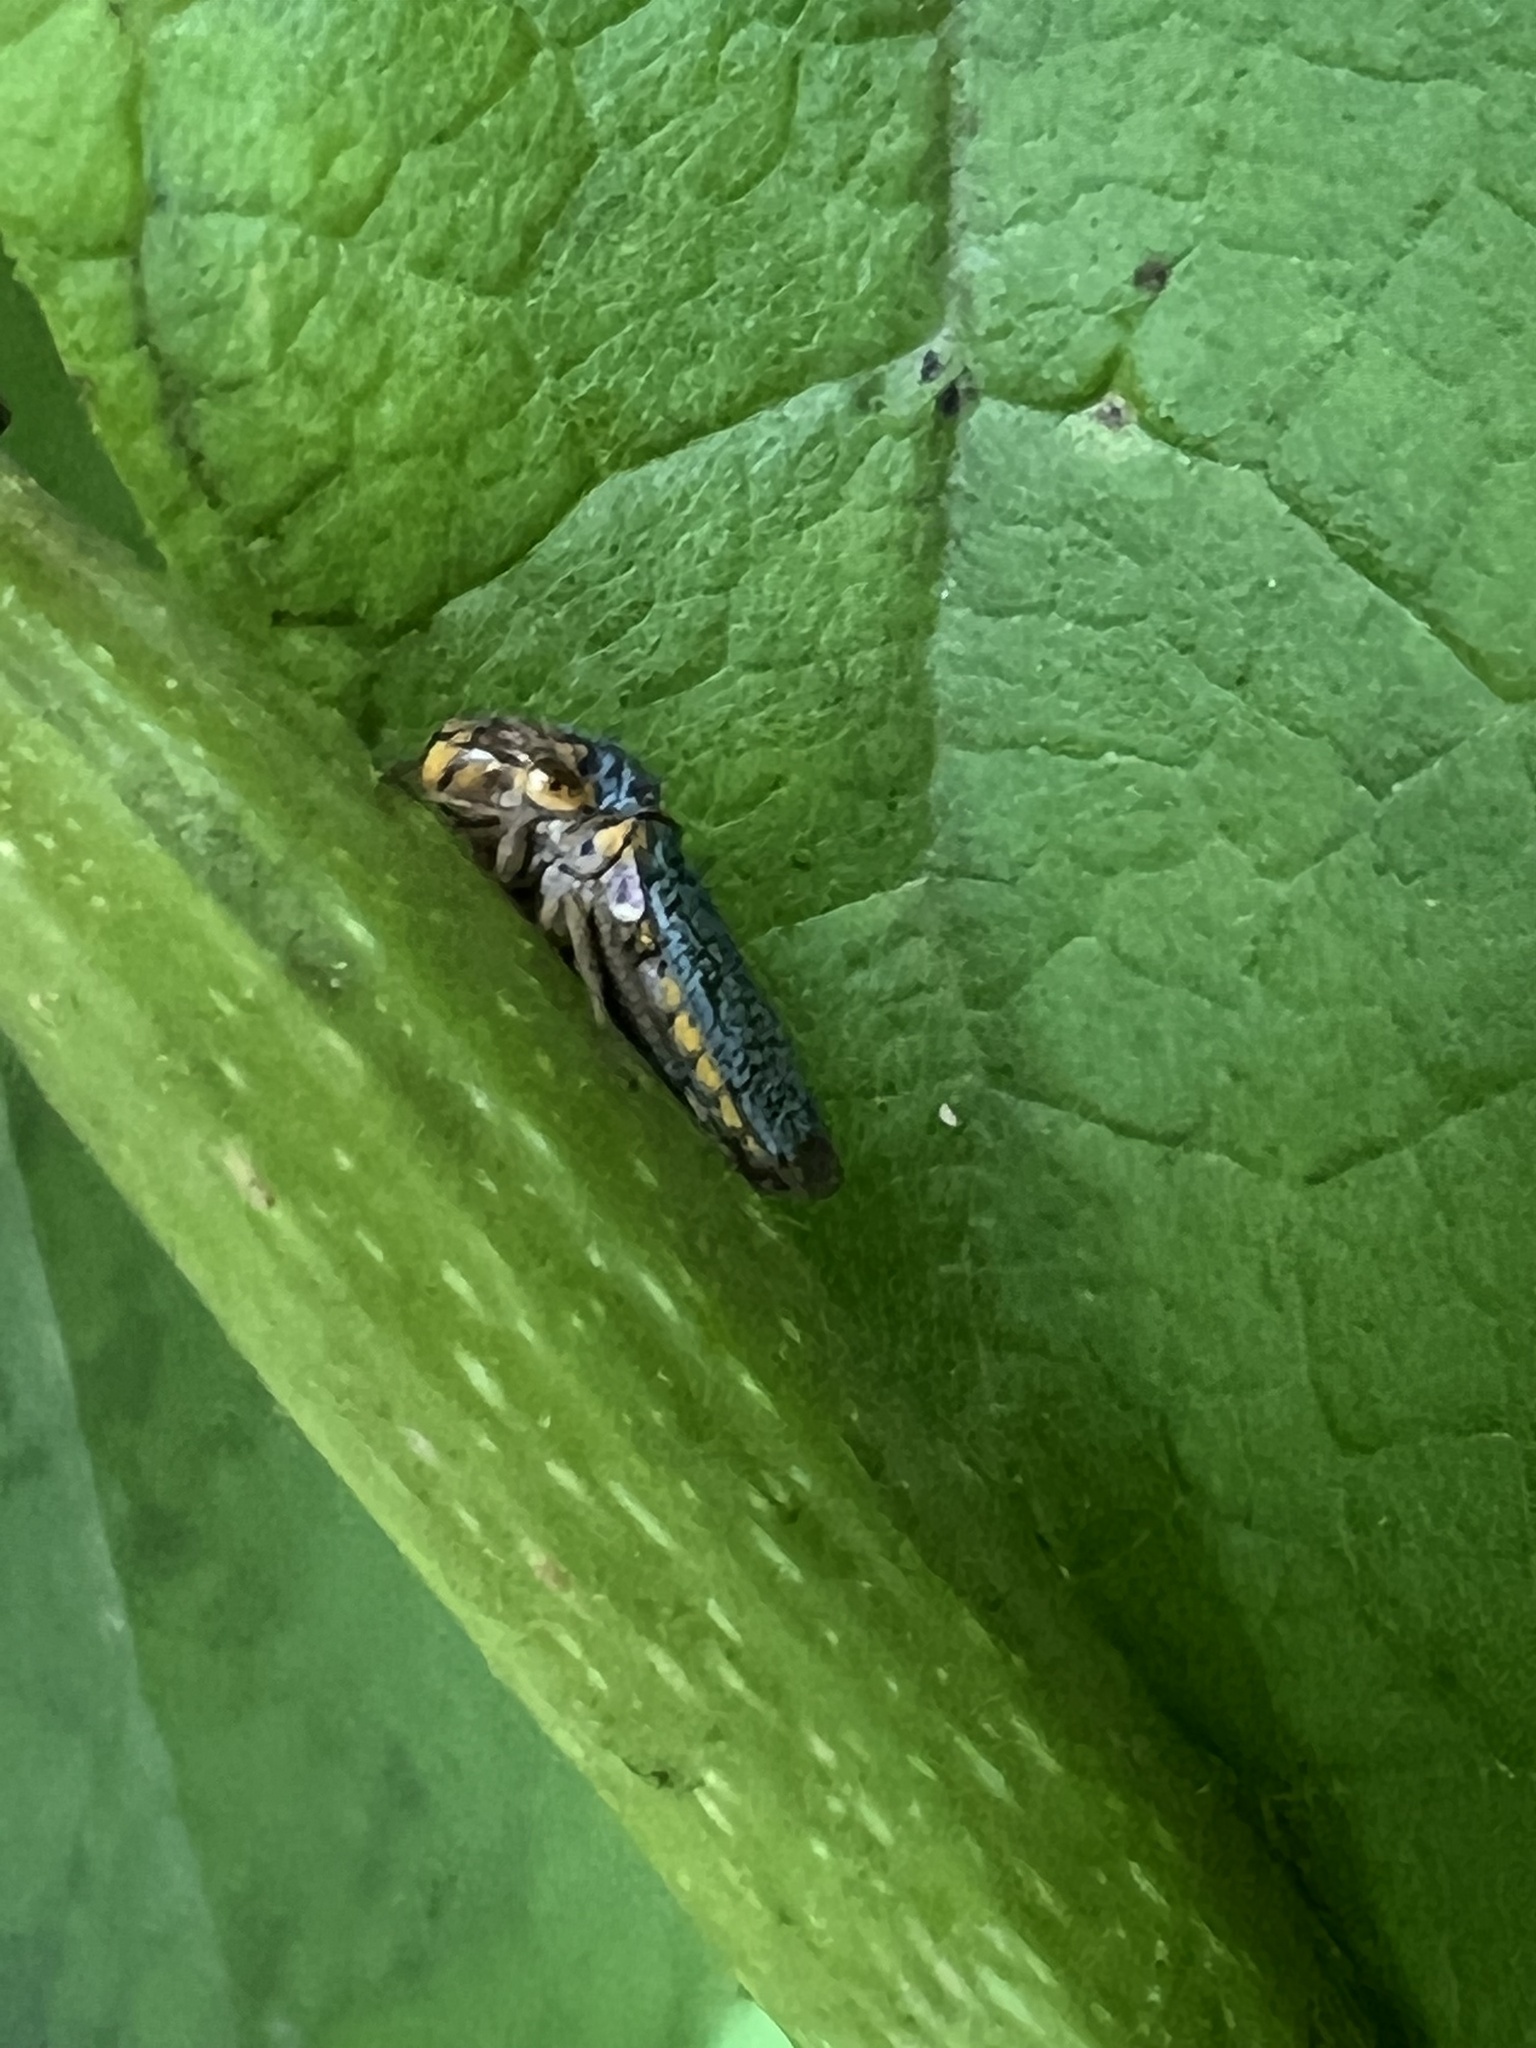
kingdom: Animalia
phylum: Arthropoda
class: Insecta
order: Hemiptera
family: Cicadellidae
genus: Oncometopia
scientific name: Oncometopia orbona
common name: Broad-headed sharpshooter
